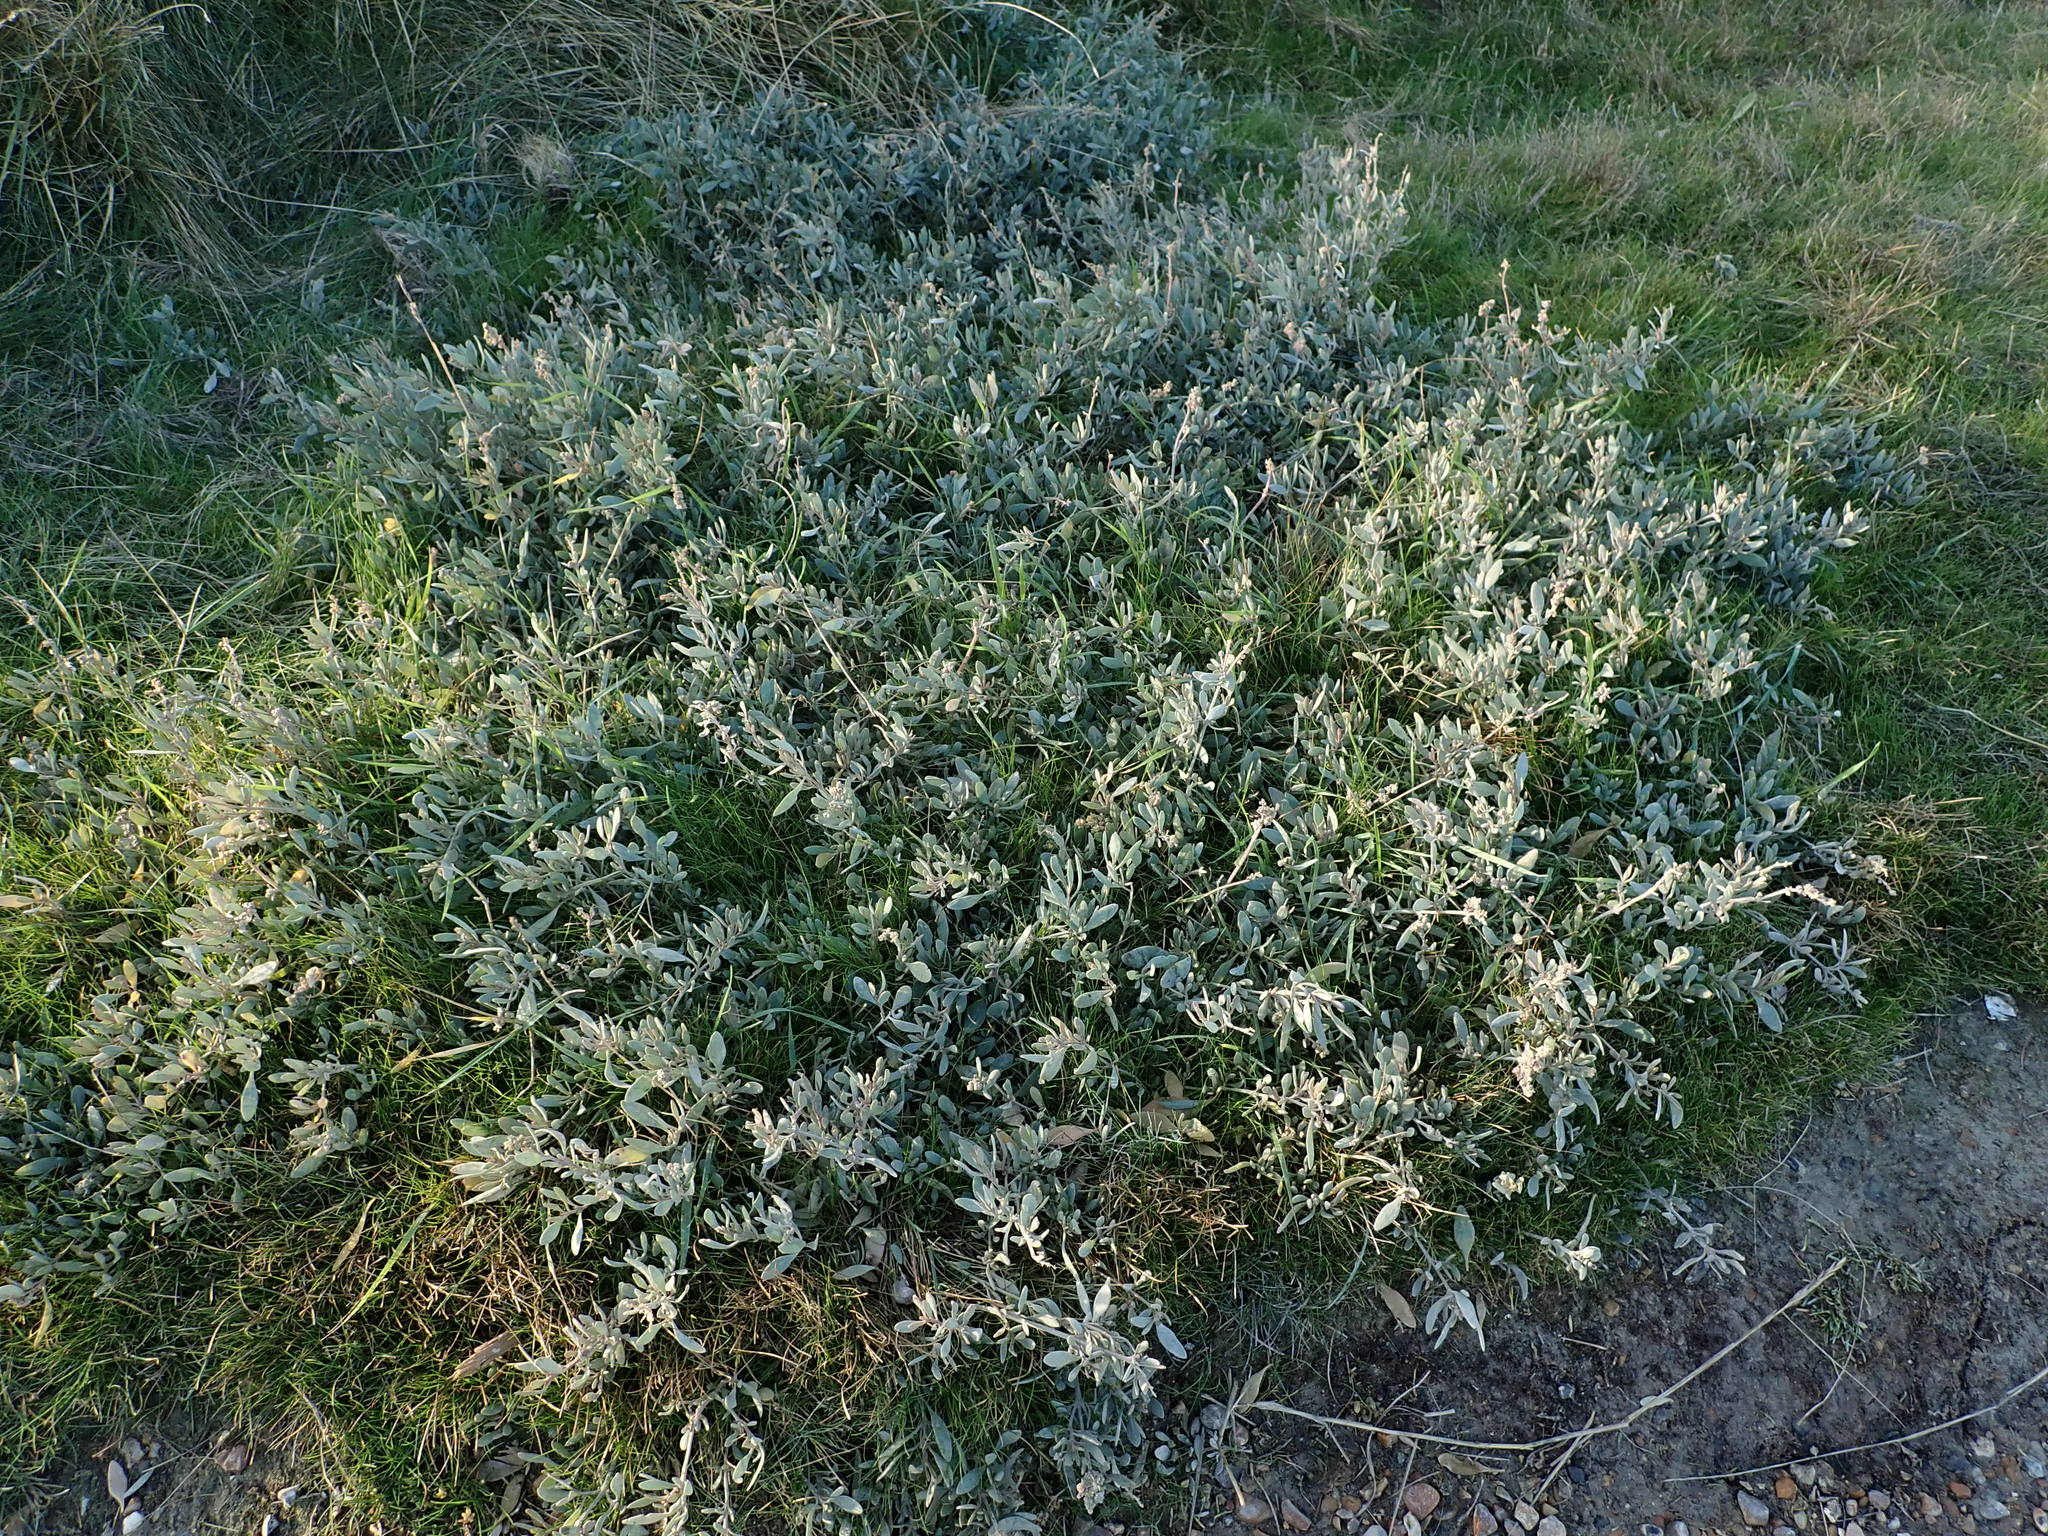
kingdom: Plantae
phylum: Tracheophyta
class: Magnoliopsida
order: Caryophyllales
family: Amaranthaceae
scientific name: Amaranthaceae
